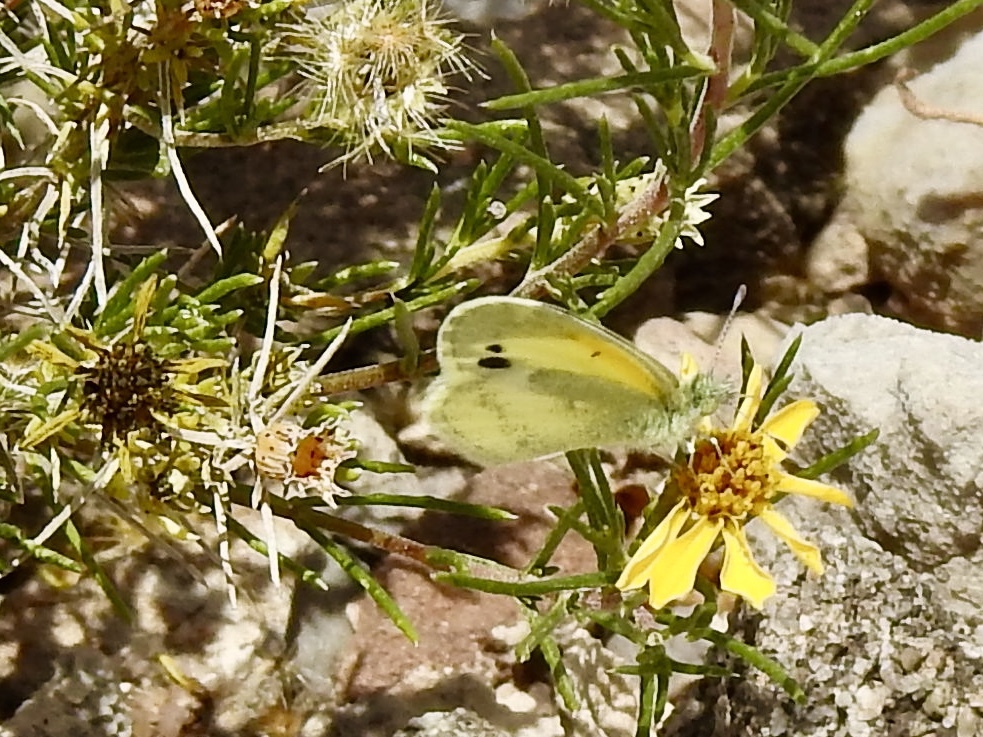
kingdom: Animalia
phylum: Arthropoda
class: Insecta
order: Lepidoptera
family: Pieridae
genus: Nathalis
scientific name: Nathalis iole
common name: Dainty sulphur
